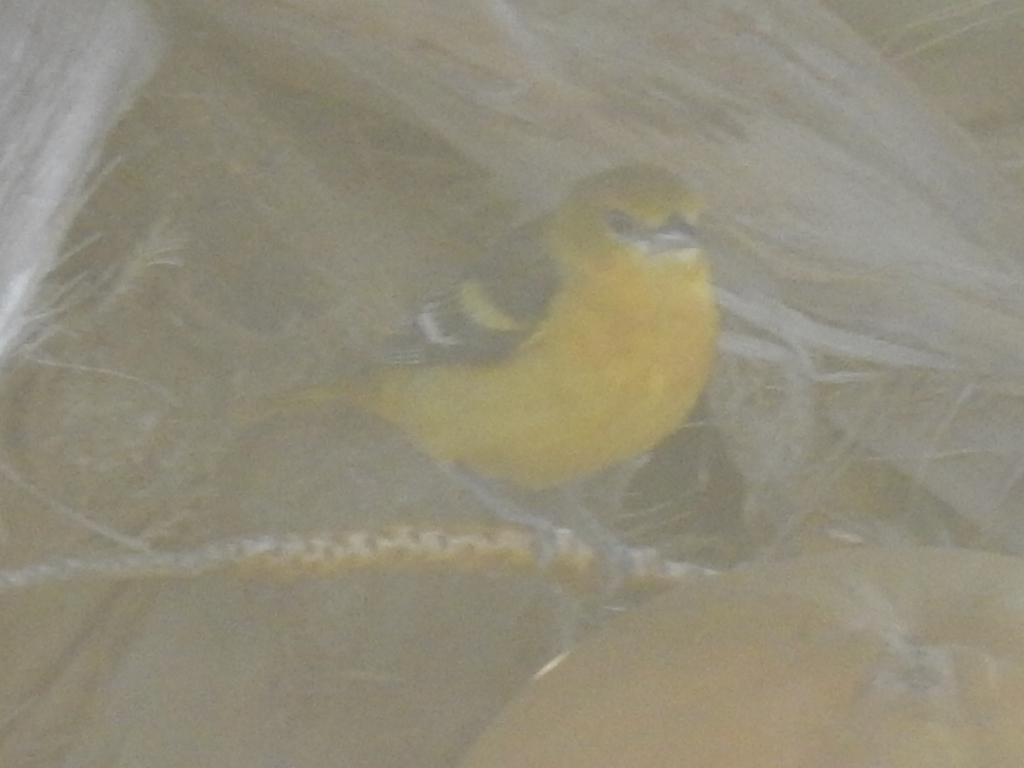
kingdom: Animalia
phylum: Chordata
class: Aves
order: Passeriformes
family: Icteridae
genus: Icterus
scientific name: Icterus galbula
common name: Baltimore oriole
